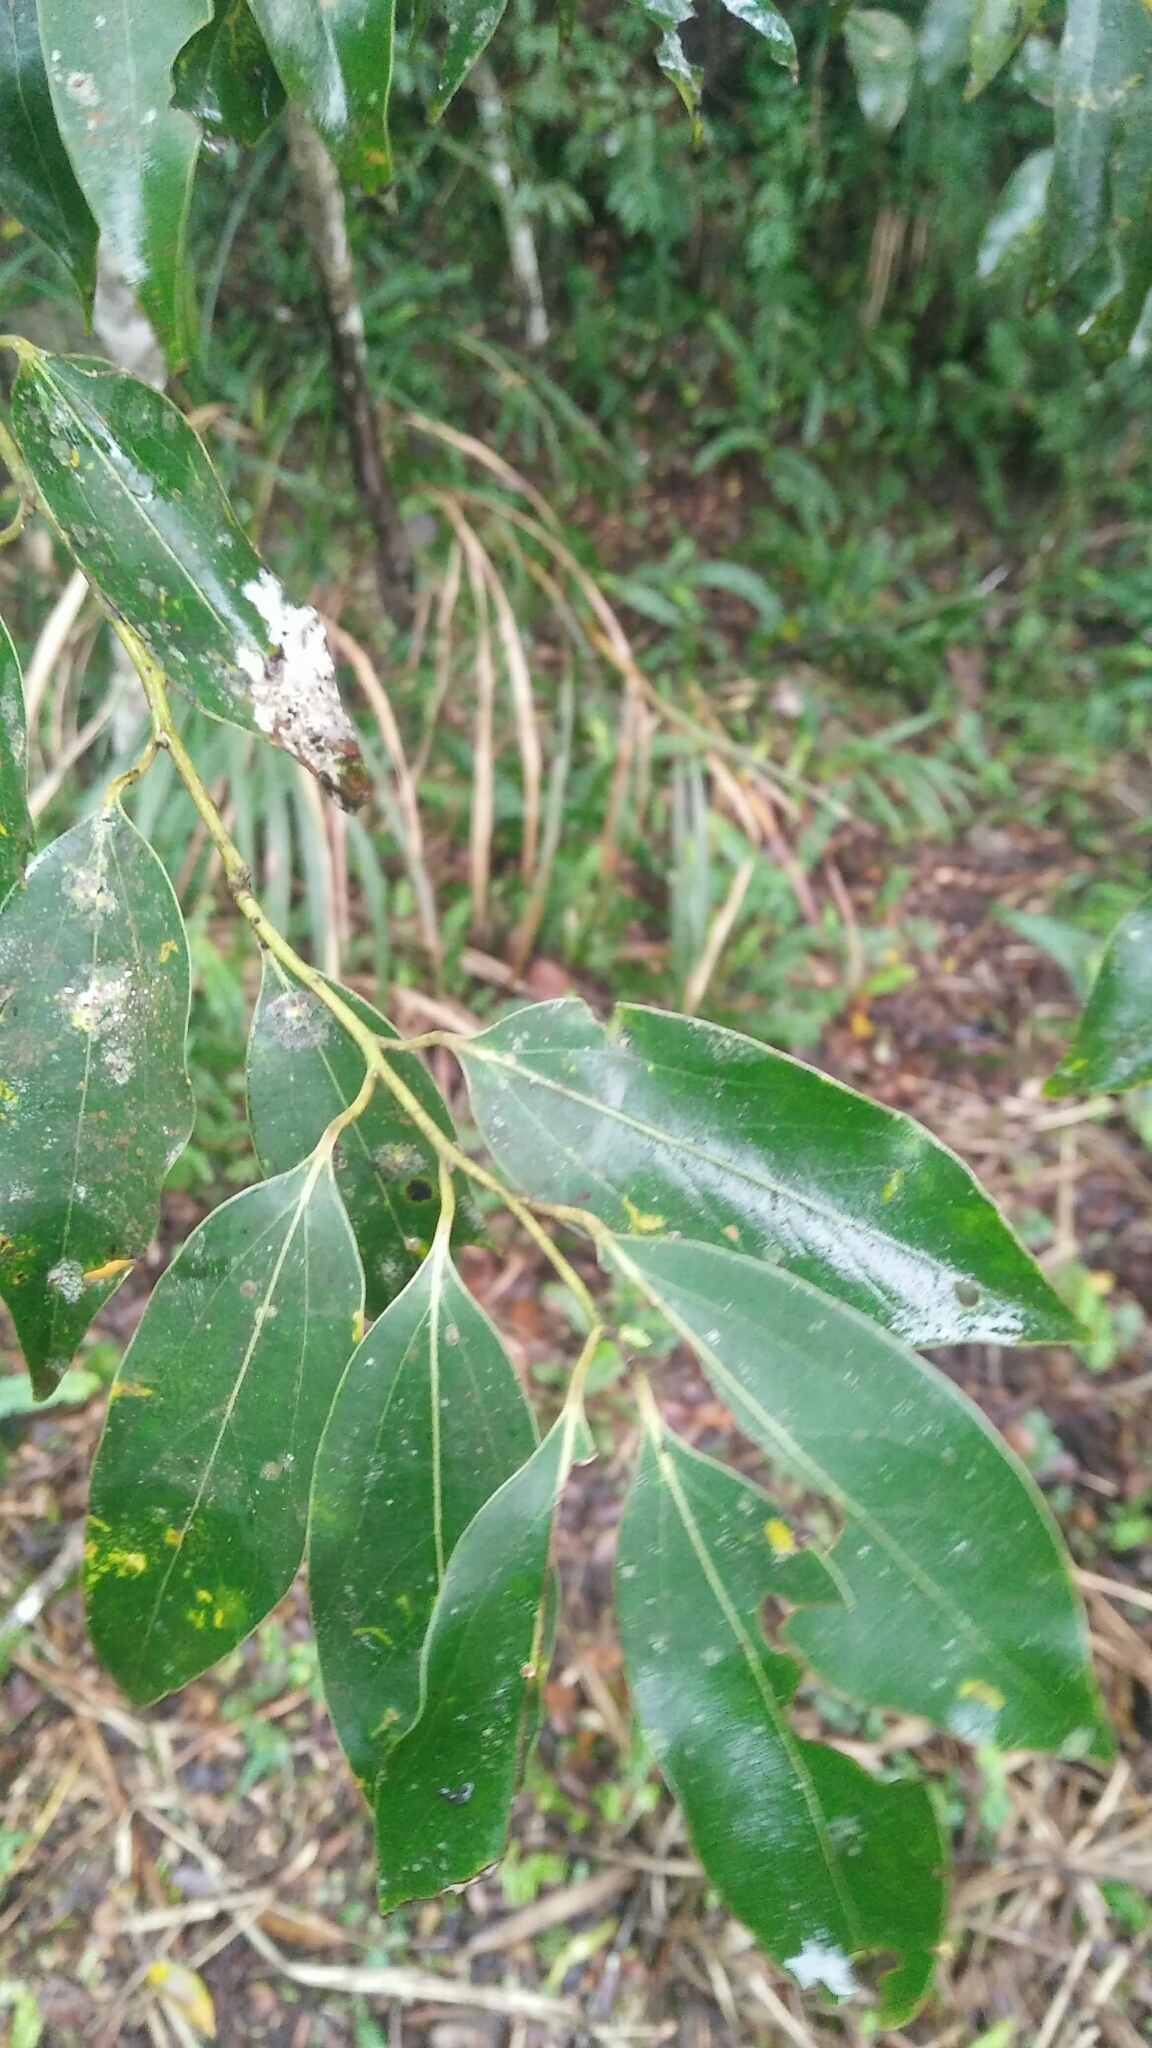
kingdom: Plantae
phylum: Tracheophyta
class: Magnoliopsida
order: Laurales
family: Lauraceae
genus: Cinnamomum
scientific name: Cinnamomum chekiangense
